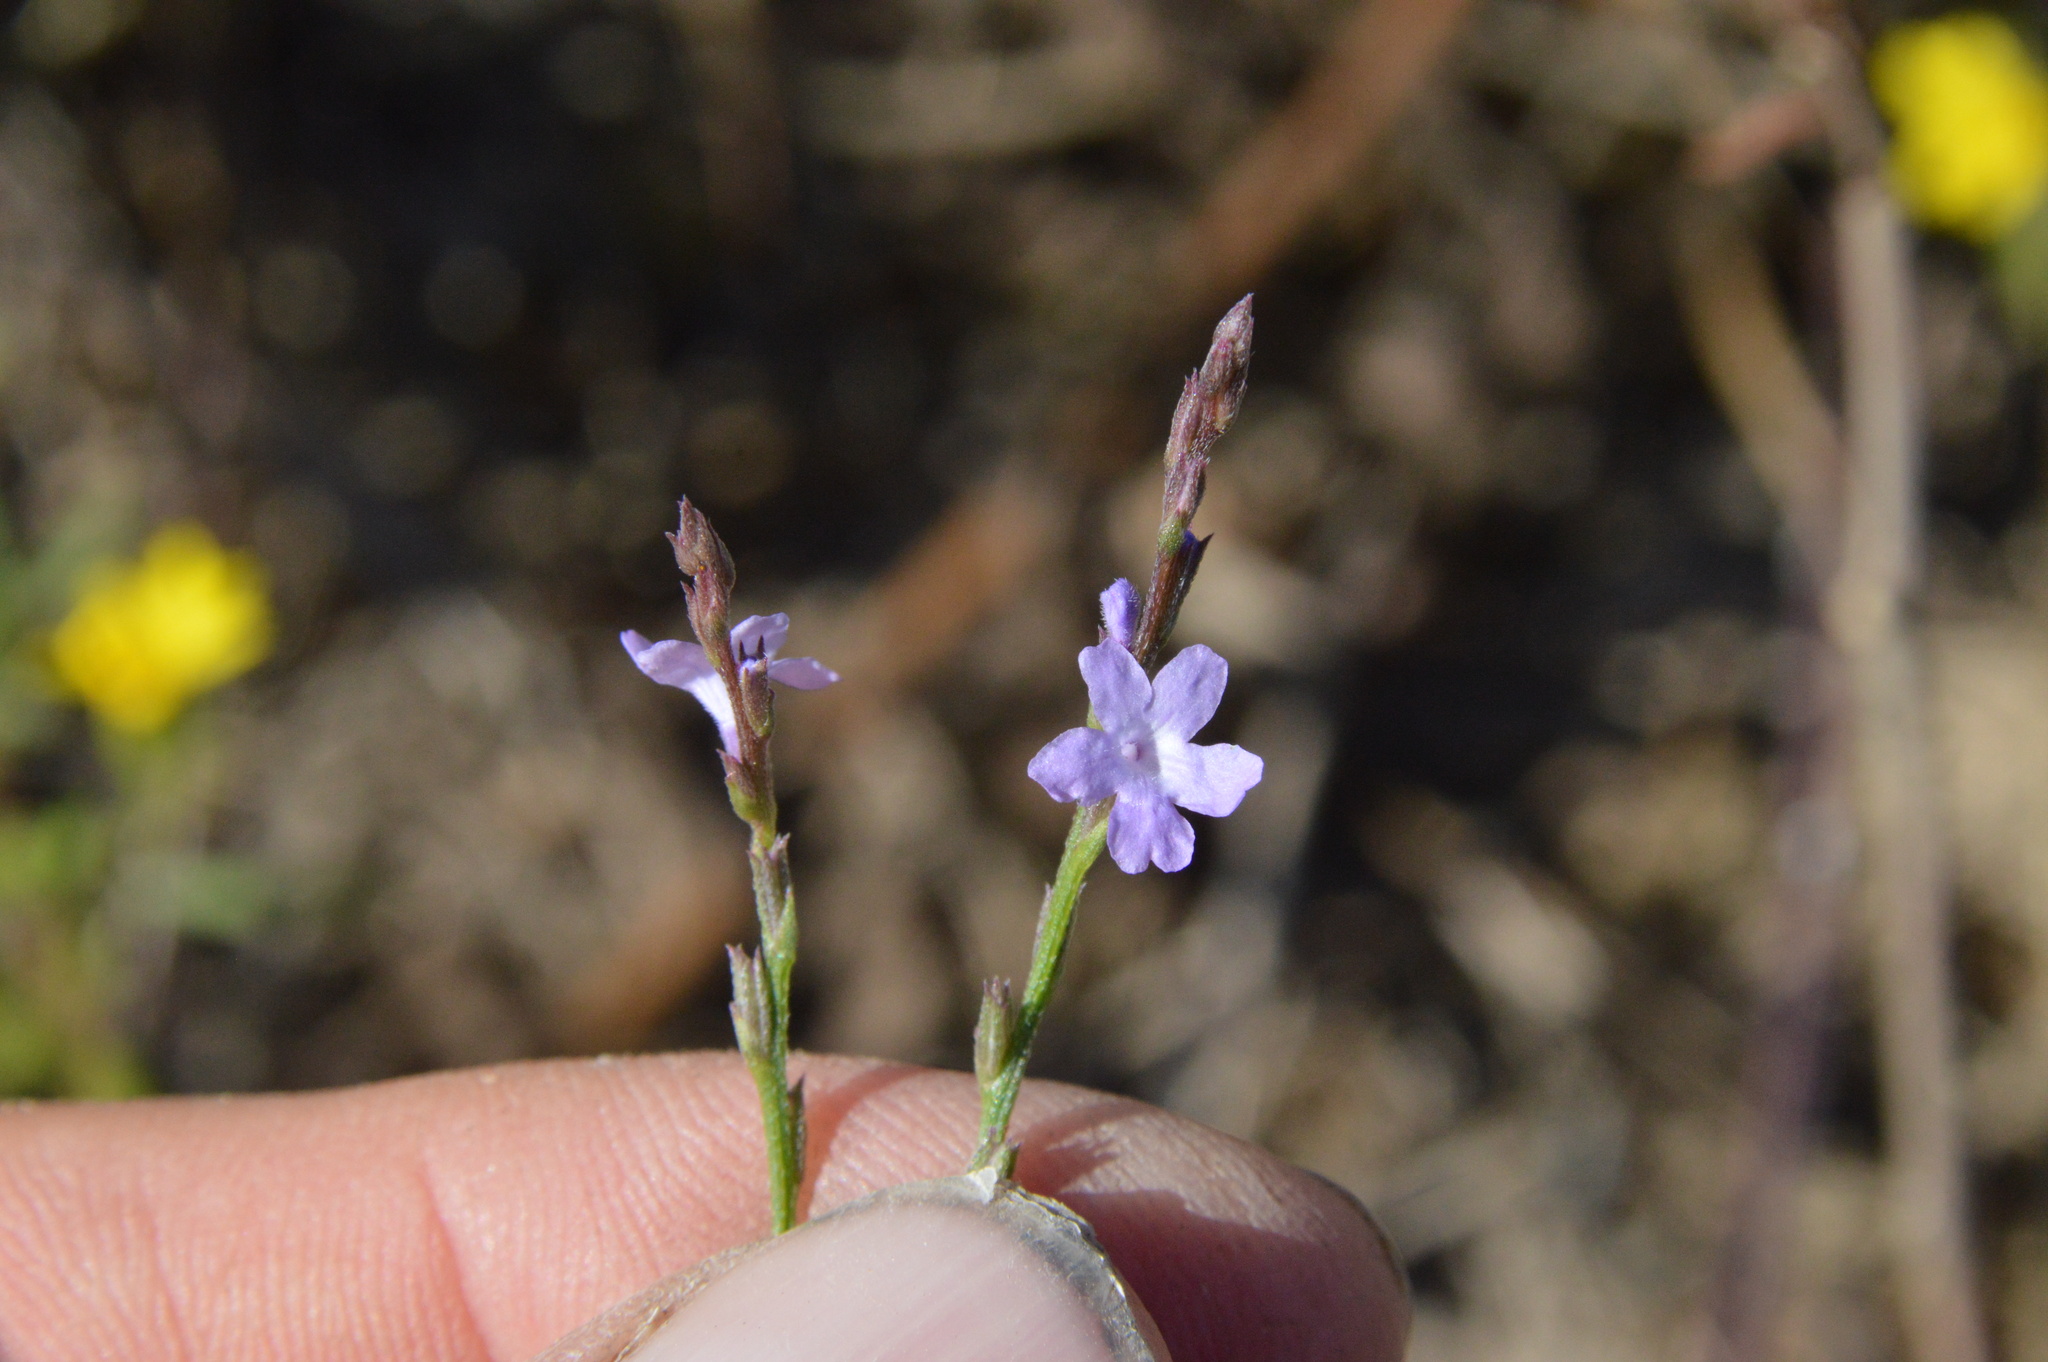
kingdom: Plantae
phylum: Tracheophyta
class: Magnoliopsida
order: Lamiales
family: Verbenaceae
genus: Verbena
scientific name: Verbena halei
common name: Texas vervain
